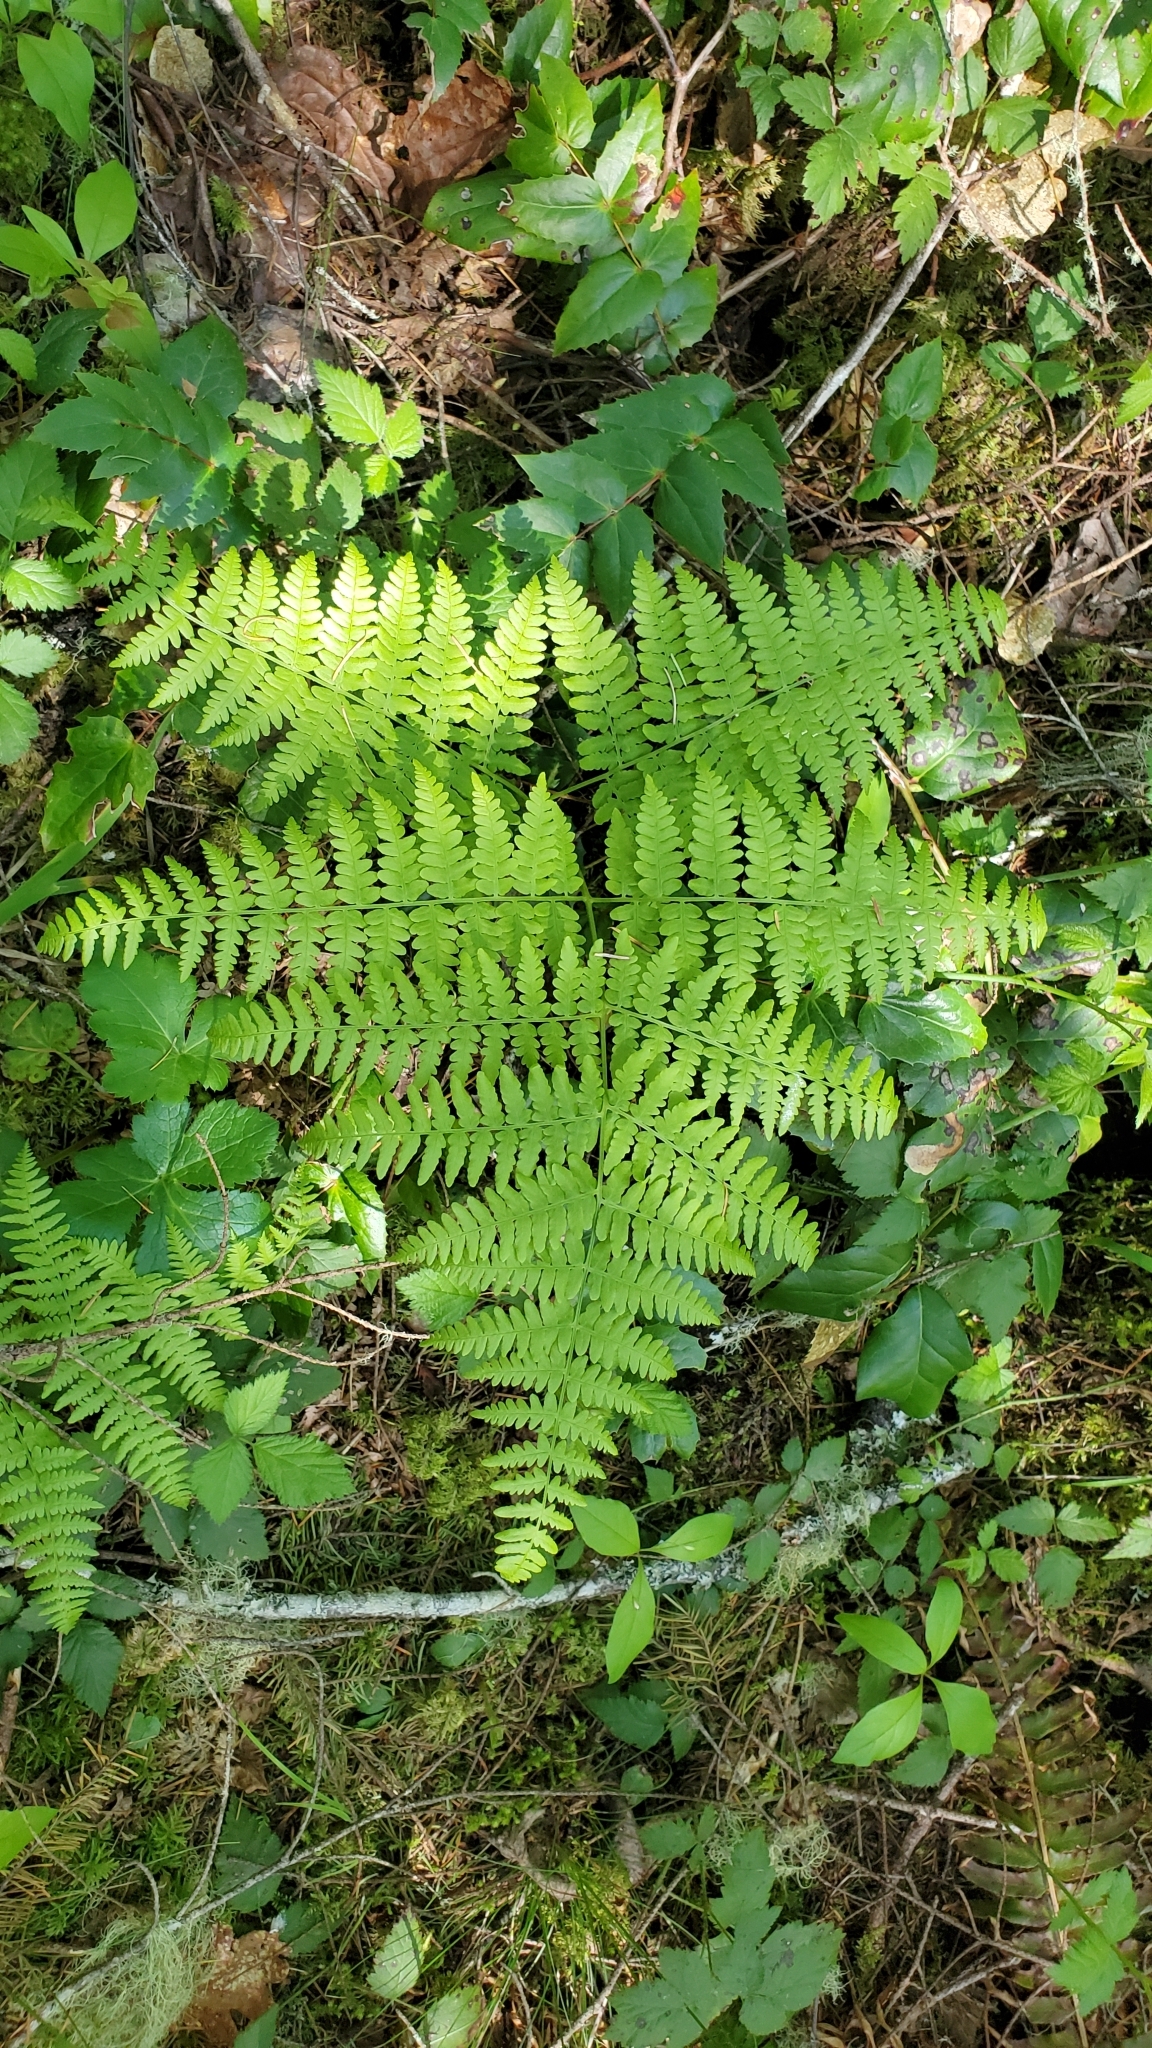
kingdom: Plantae
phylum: Tracheophyta
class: Polypodiopsida
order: Polypodiales
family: Dennstaedtiaceae
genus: Pteridium
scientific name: Pteridium aquilinum
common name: Bracken
